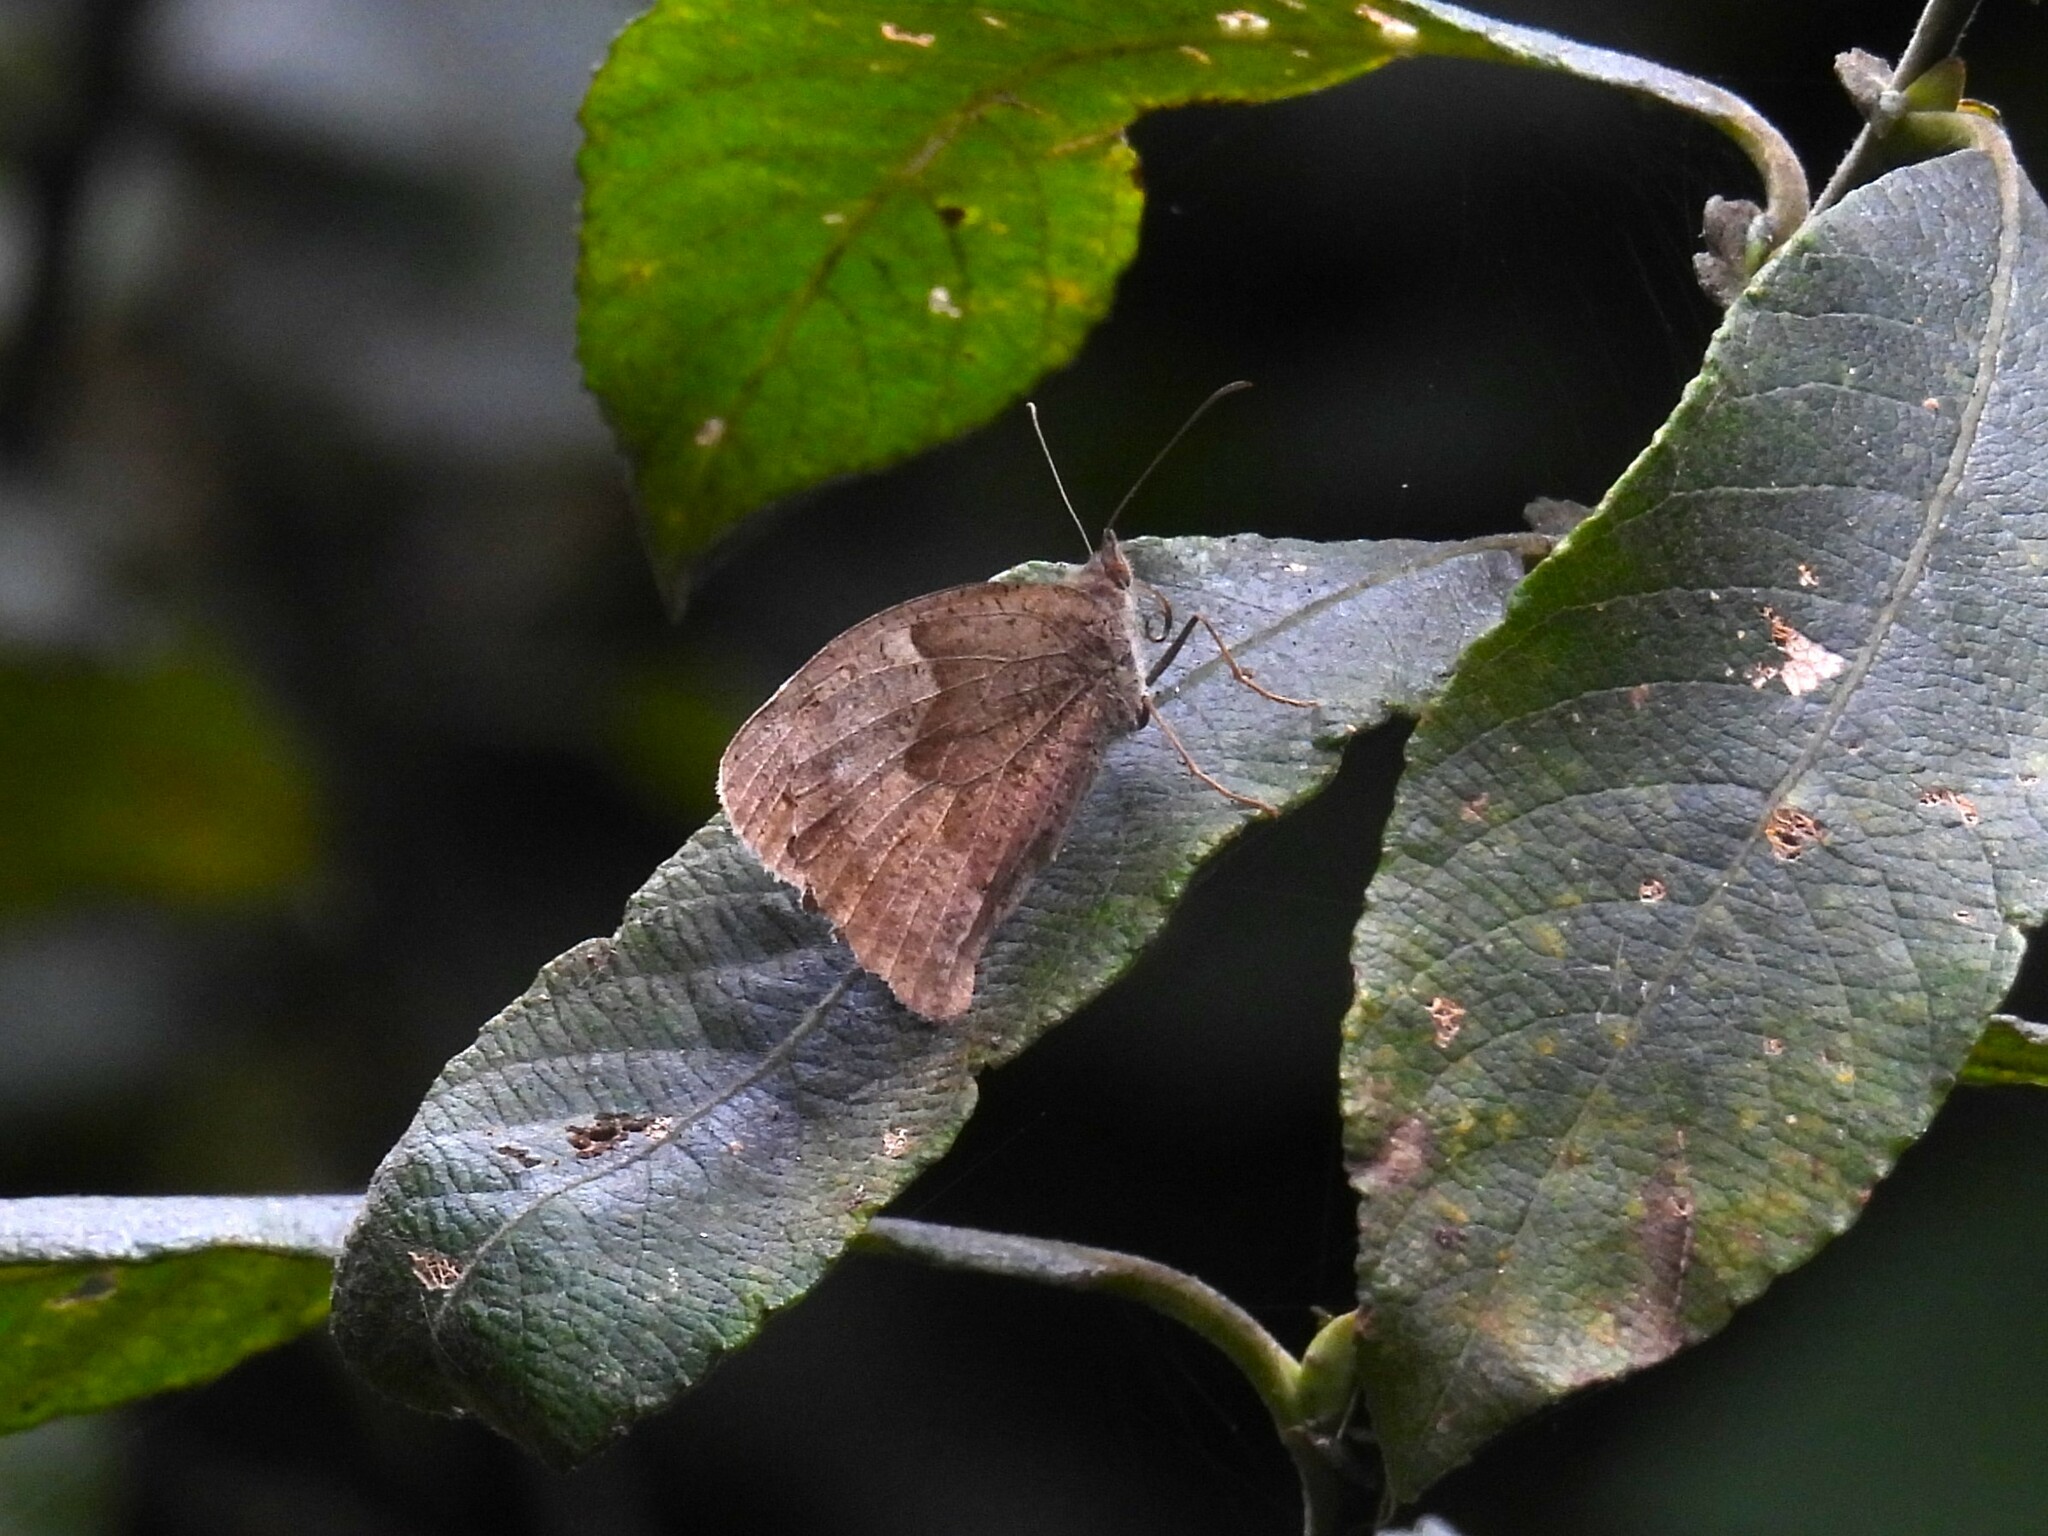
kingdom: Animalia
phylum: Arthropoda
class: Insecta
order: Lepidoptera
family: Nymphalidae
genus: Maniola
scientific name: Maniola jurtina
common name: Meadow brown
